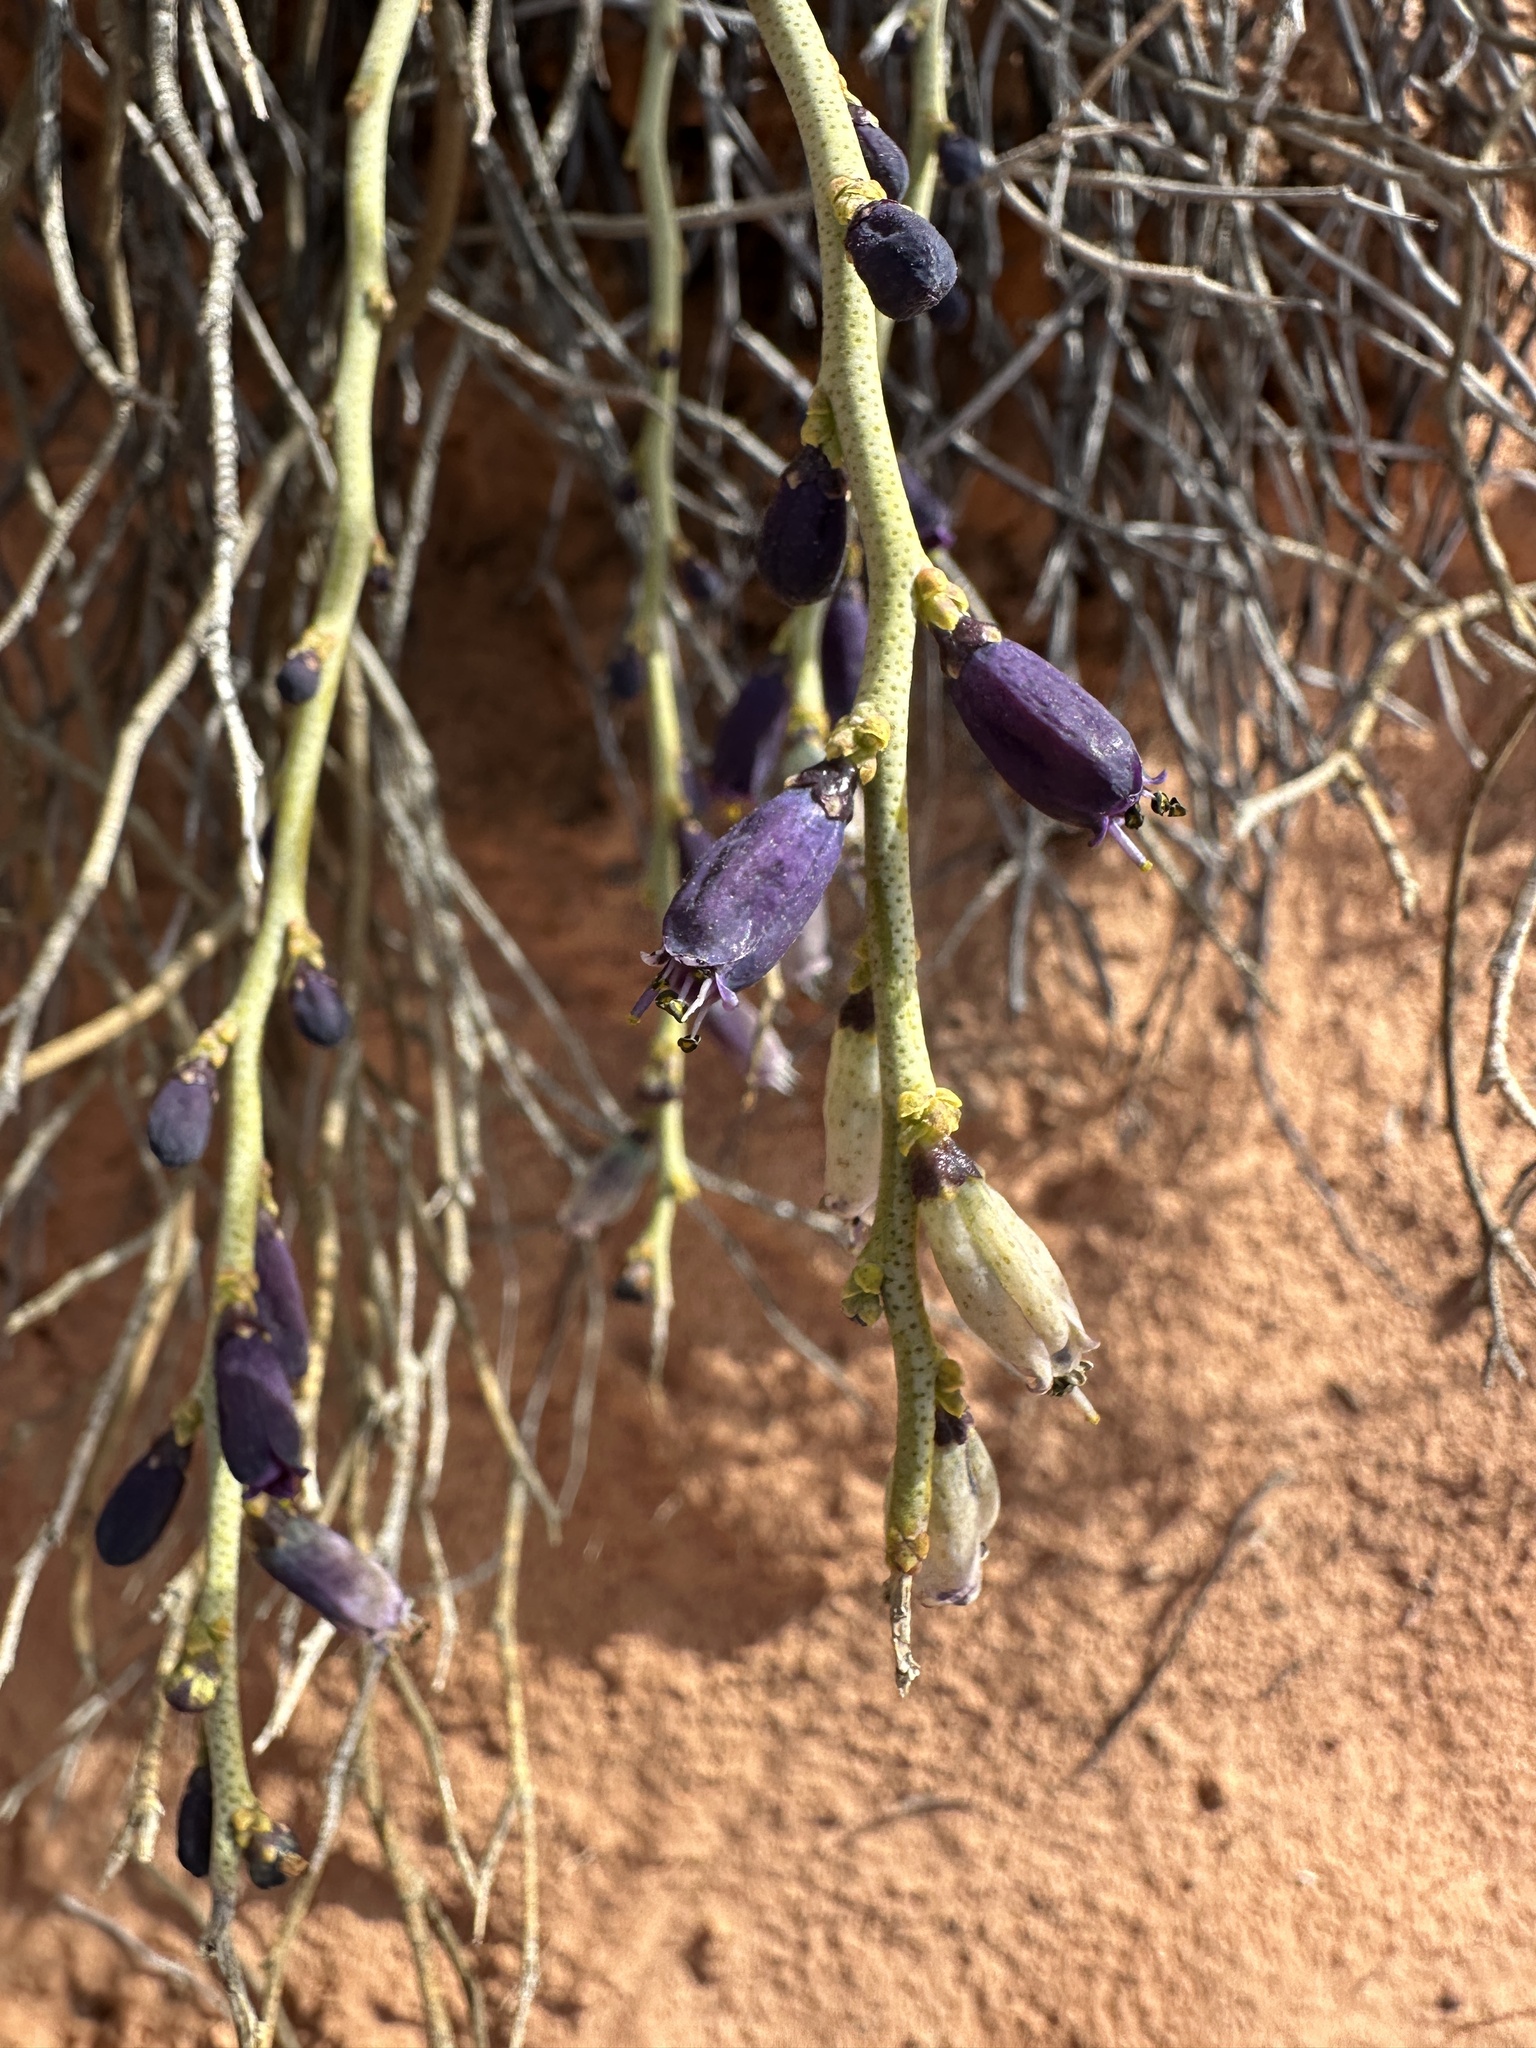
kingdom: Plantae
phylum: Tracheophyta
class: Magnoliopsida
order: Sapindales
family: Rutaceae
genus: Thamnosma
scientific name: Thamnosma montana
